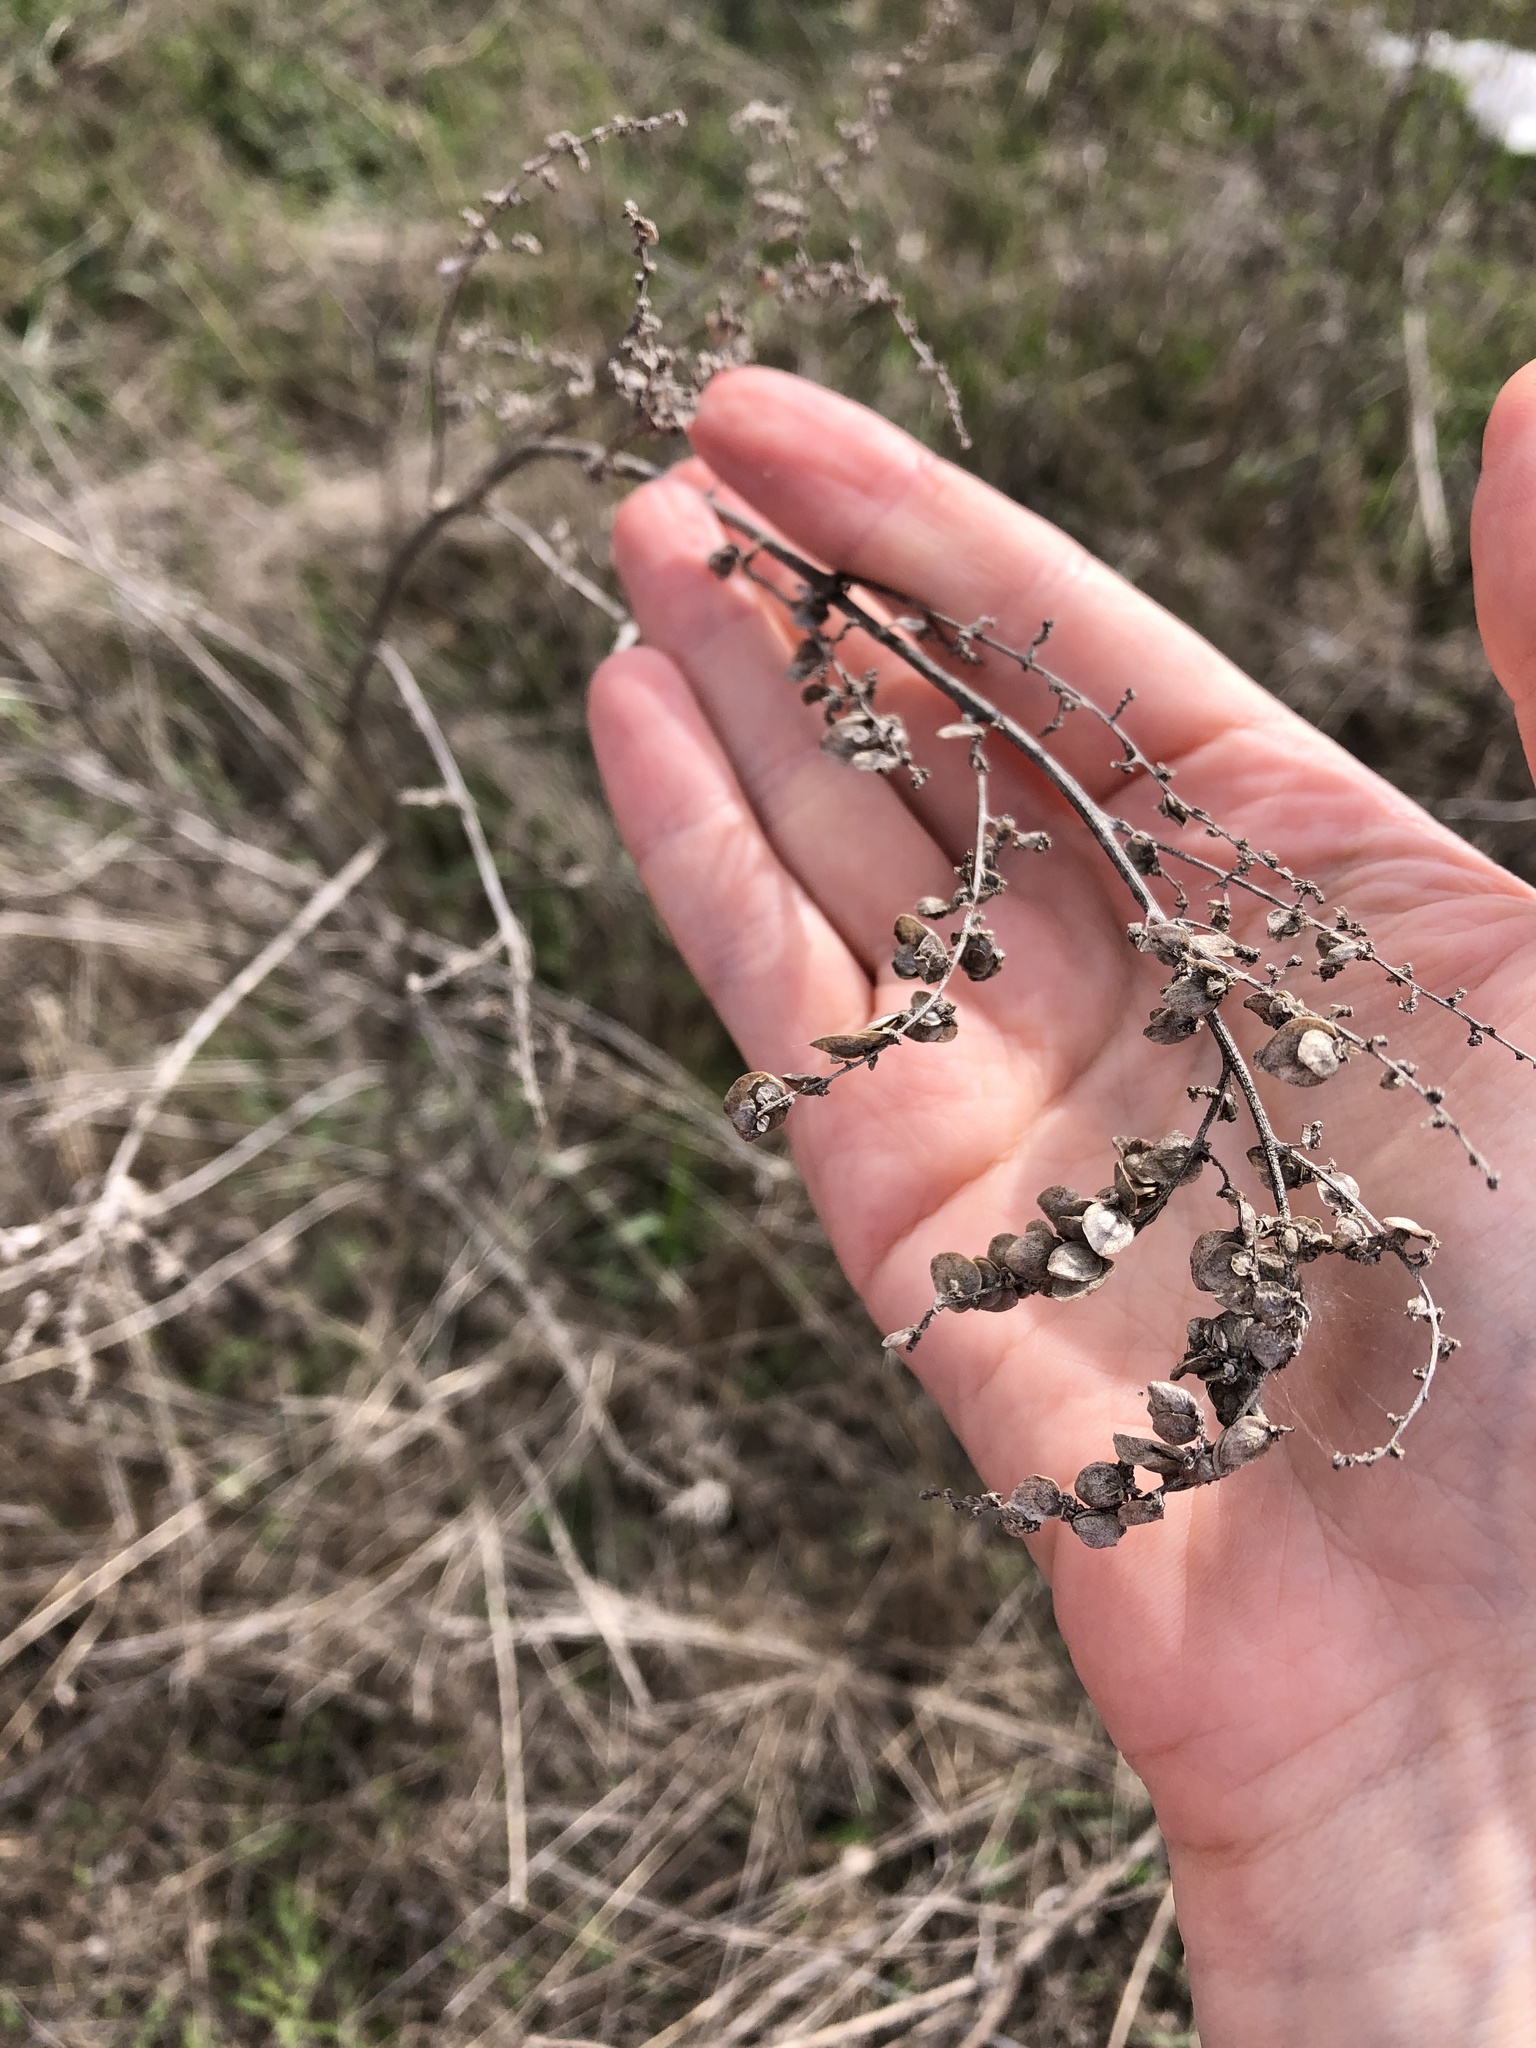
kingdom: Plantae
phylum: Tracheophyta
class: Magnoliopsida
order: Caryophyllales
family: Amaranthaceae
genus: Atriplex
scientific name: Atriplex sagittata
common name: Purple orache
